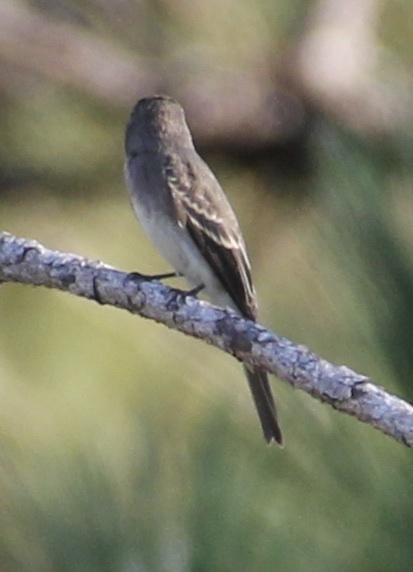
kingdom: Animalia
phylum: Chordata
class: Aves
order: Passeriformes
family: Tyrannidae
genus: Contopus
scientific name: Contopus virens
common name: Eastern wood-pewee
